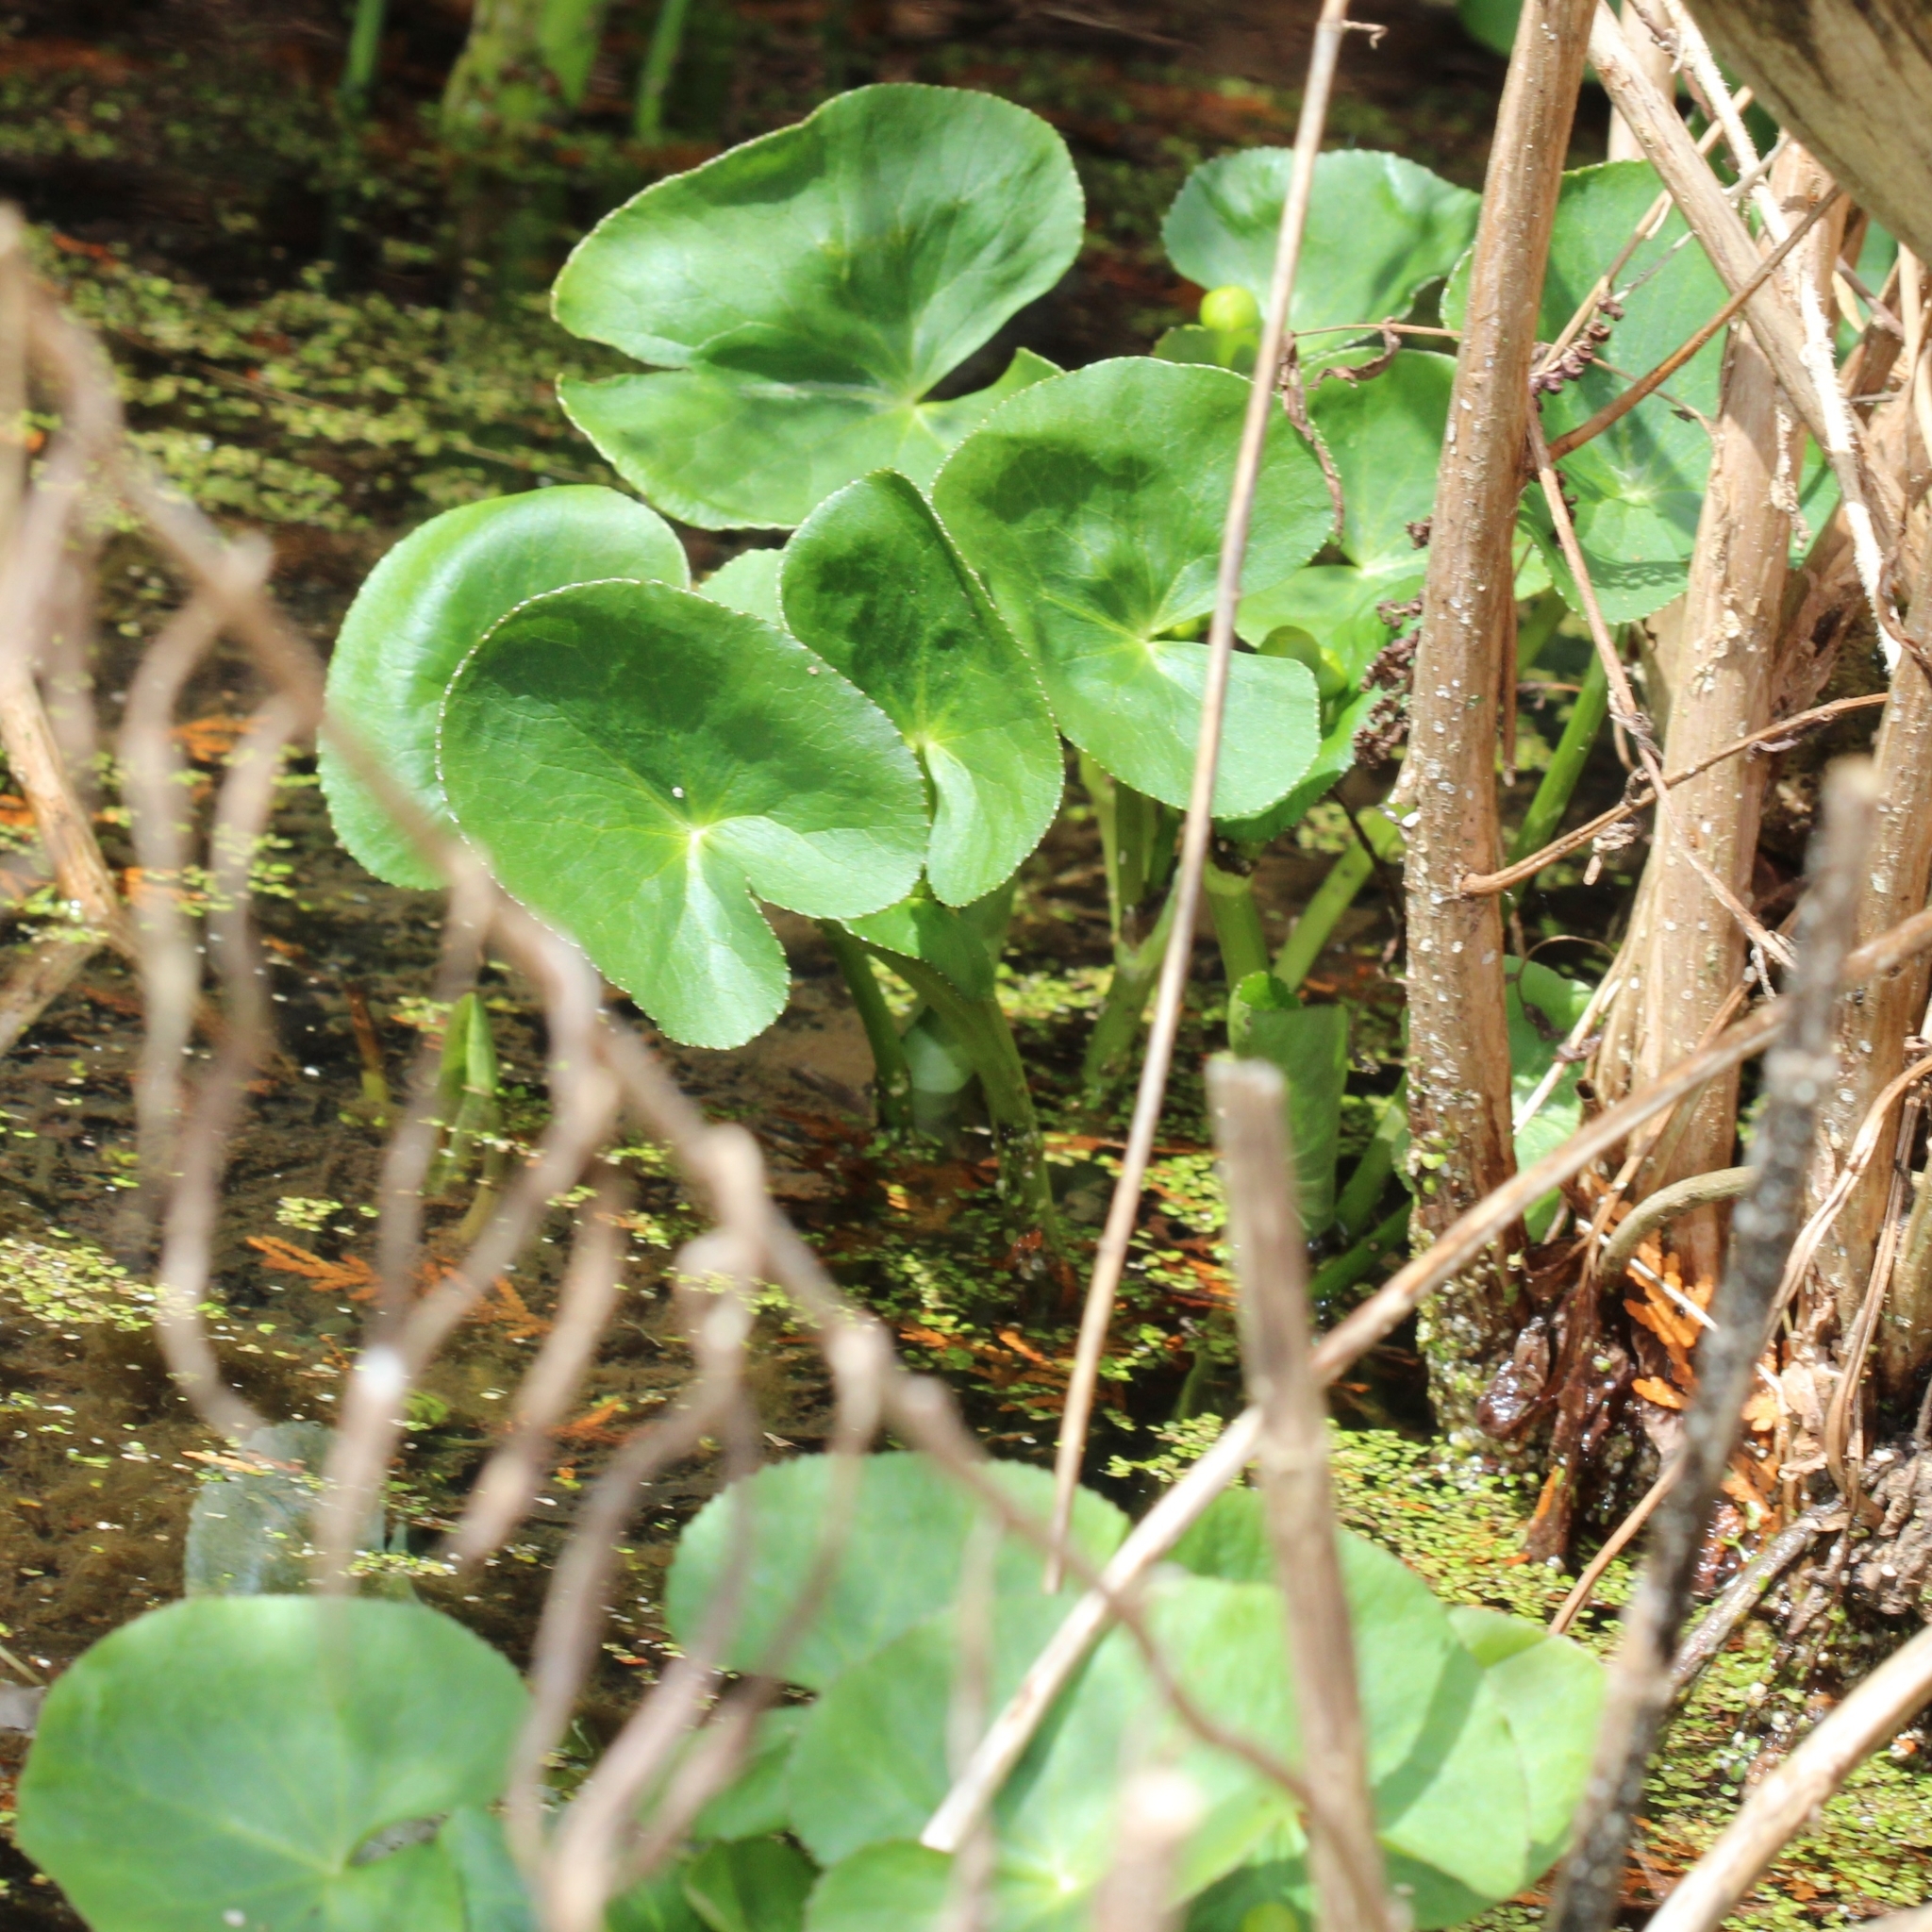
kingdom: Plantae
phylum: Tracheophyta
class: Magnoliopsida
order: Ranunculales
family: Ranunculaceae
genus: Caltha
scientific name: Caltha palustris
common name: Marsh marigold
